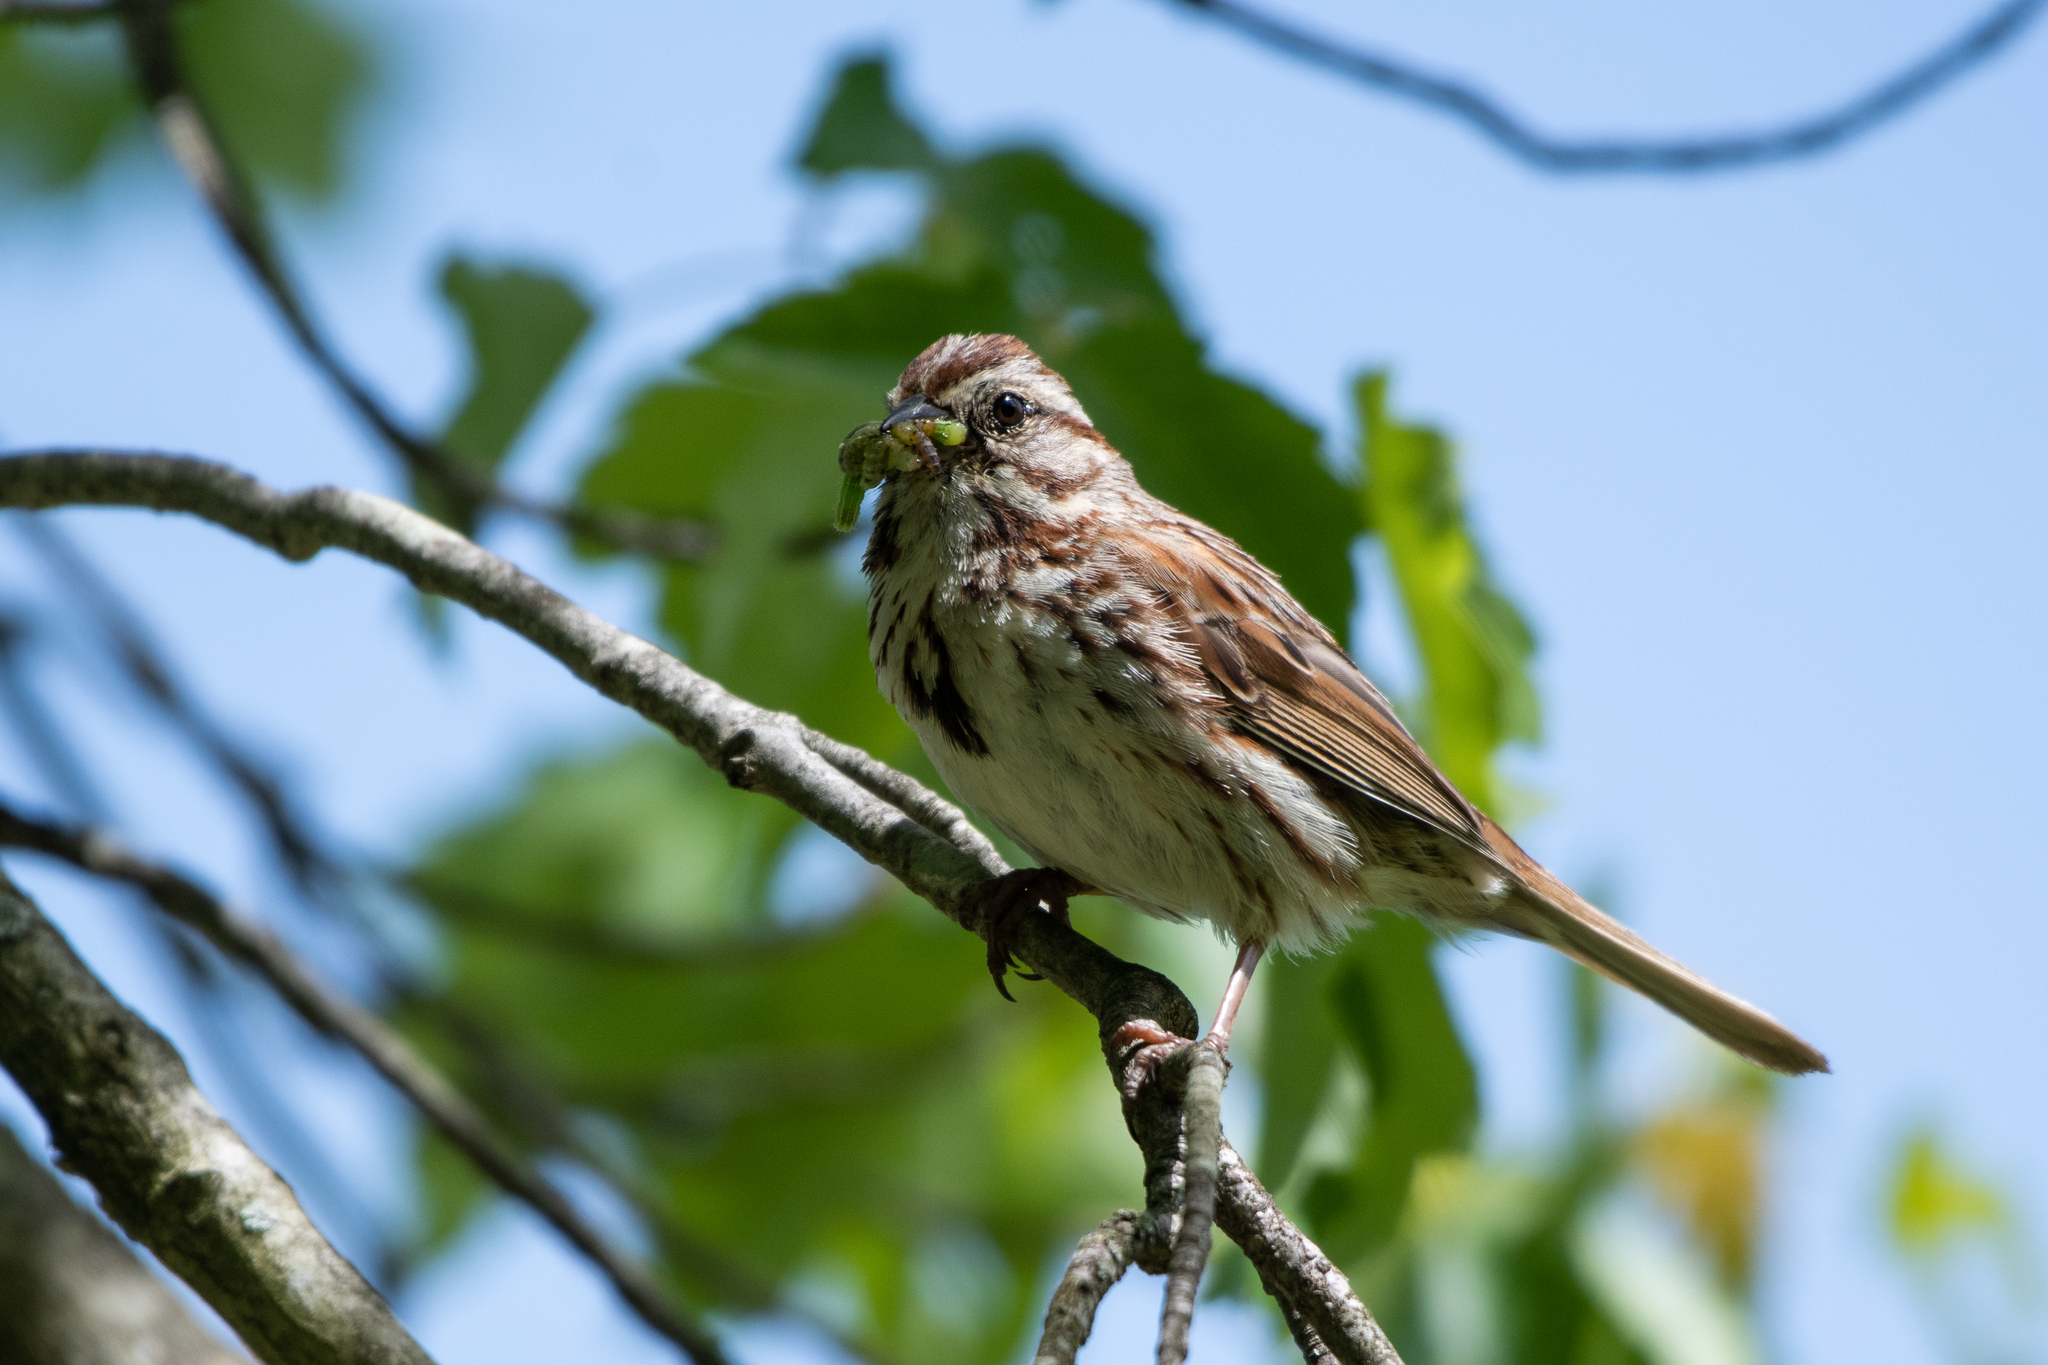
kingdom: Animalia
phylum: Chordata
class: Aves
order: Passeriformes
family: Passerellidae
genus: Melospiza
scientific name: Melospiza melodia
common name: Song sparrow
